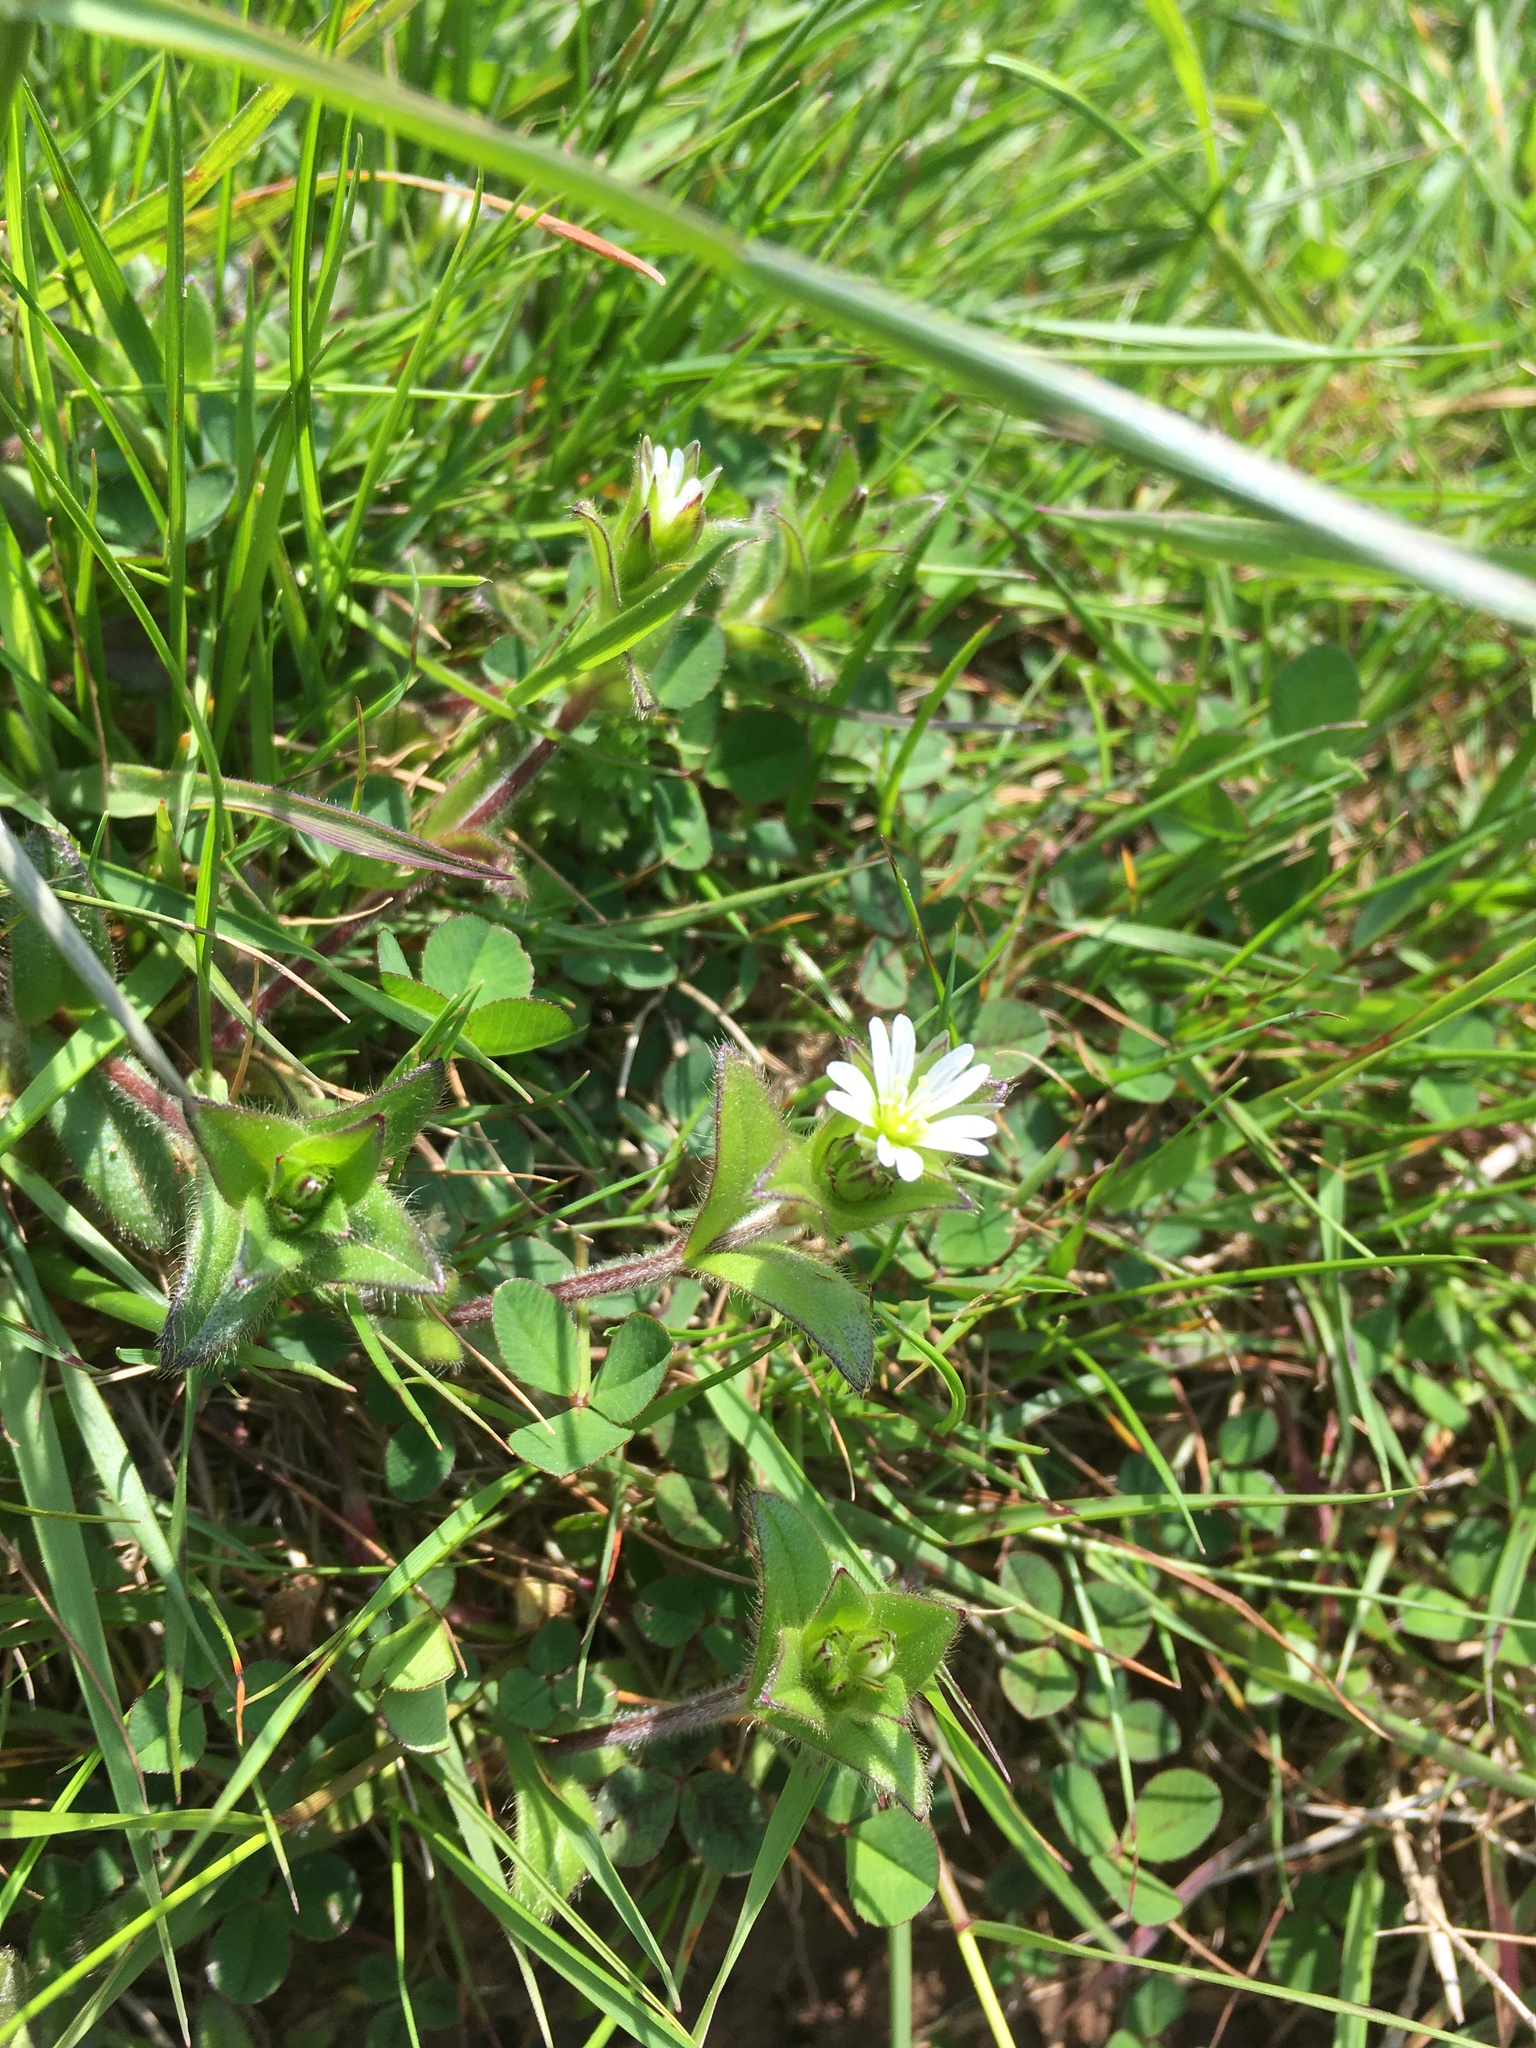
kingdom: Plantae
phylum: Tracheophyta
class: Magnoliopsida
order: Caryophyllales
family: Caryophyllaceae
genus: Cerastium
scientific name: Cerastium fontanum
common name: Common mouse-ear
